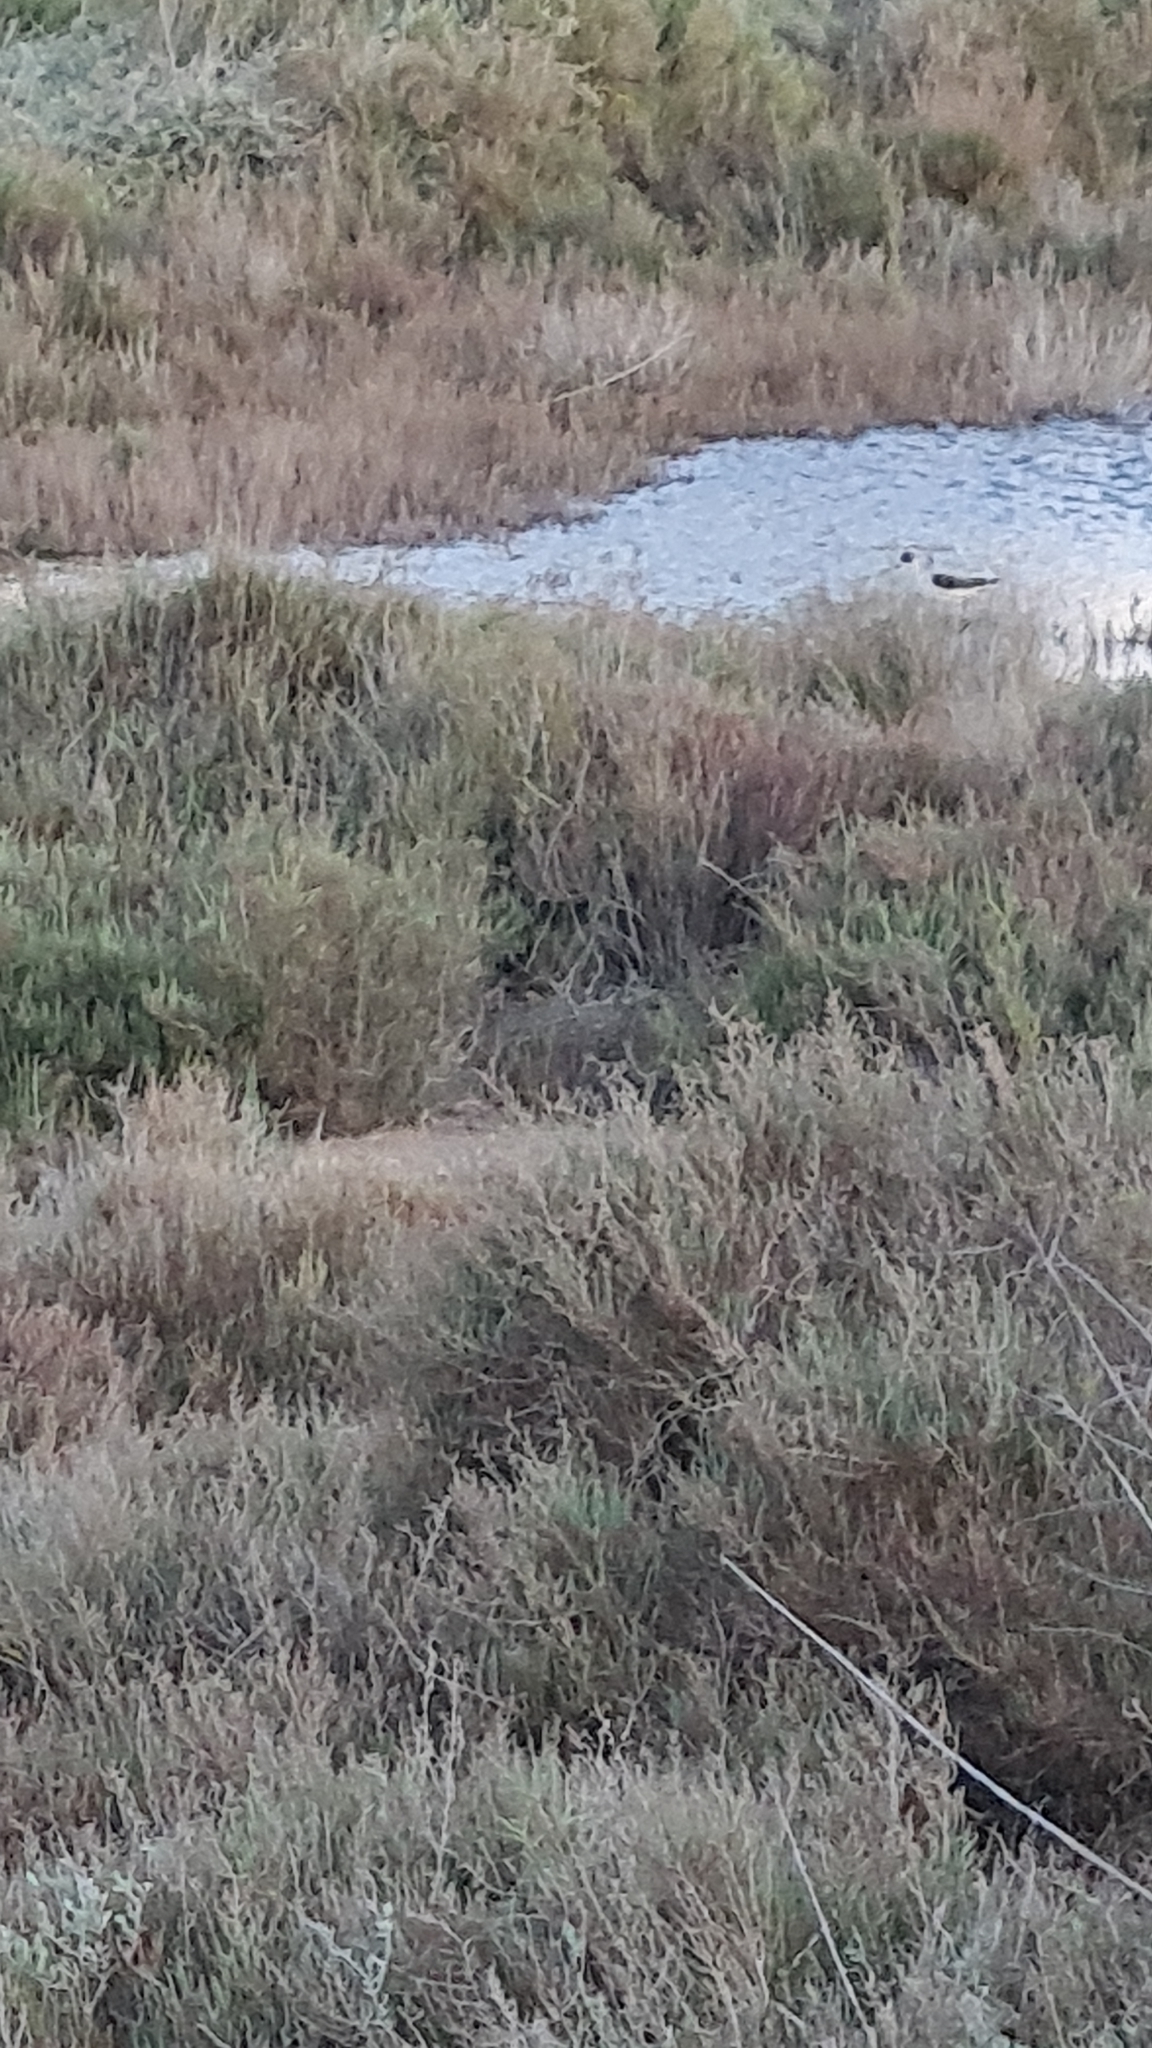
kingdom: Animalia
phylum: Chordata
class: Aves
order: Charadriiformes
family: Recurvirostridae
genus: Himantopus
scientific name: Himantopus himantopus
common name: Black-winged stilt
